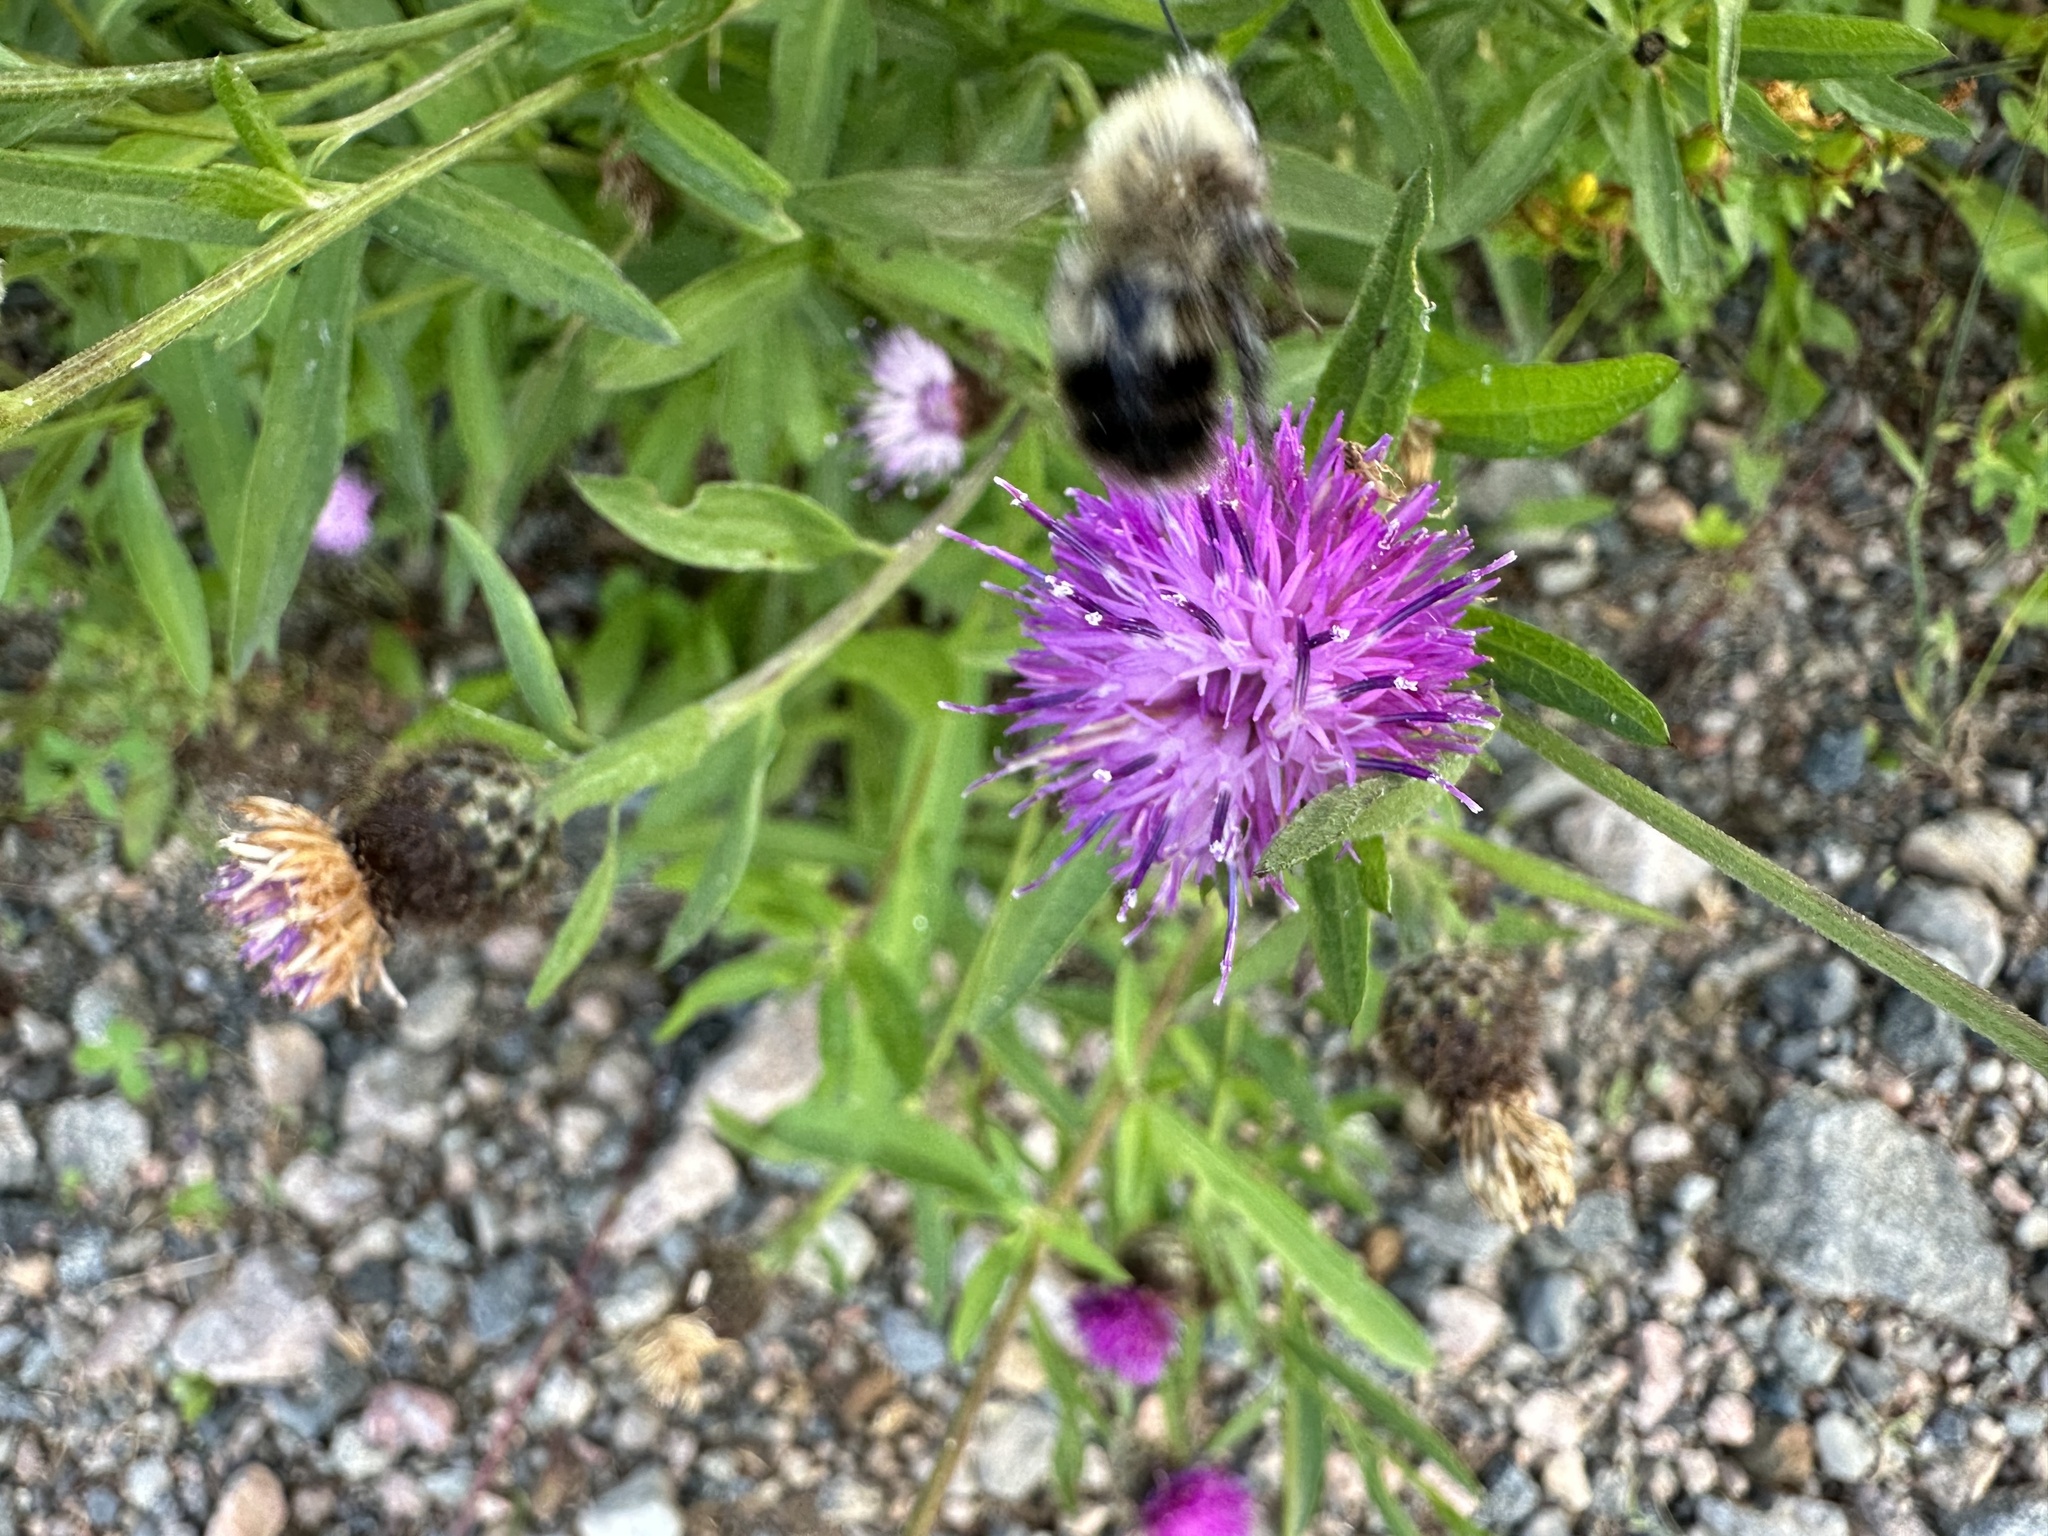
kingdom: Animalia
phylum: Arthropoda
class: Insecta
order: Hymenoptera
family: Apidae
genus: Pyrobombus
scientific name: Pyrobombus
